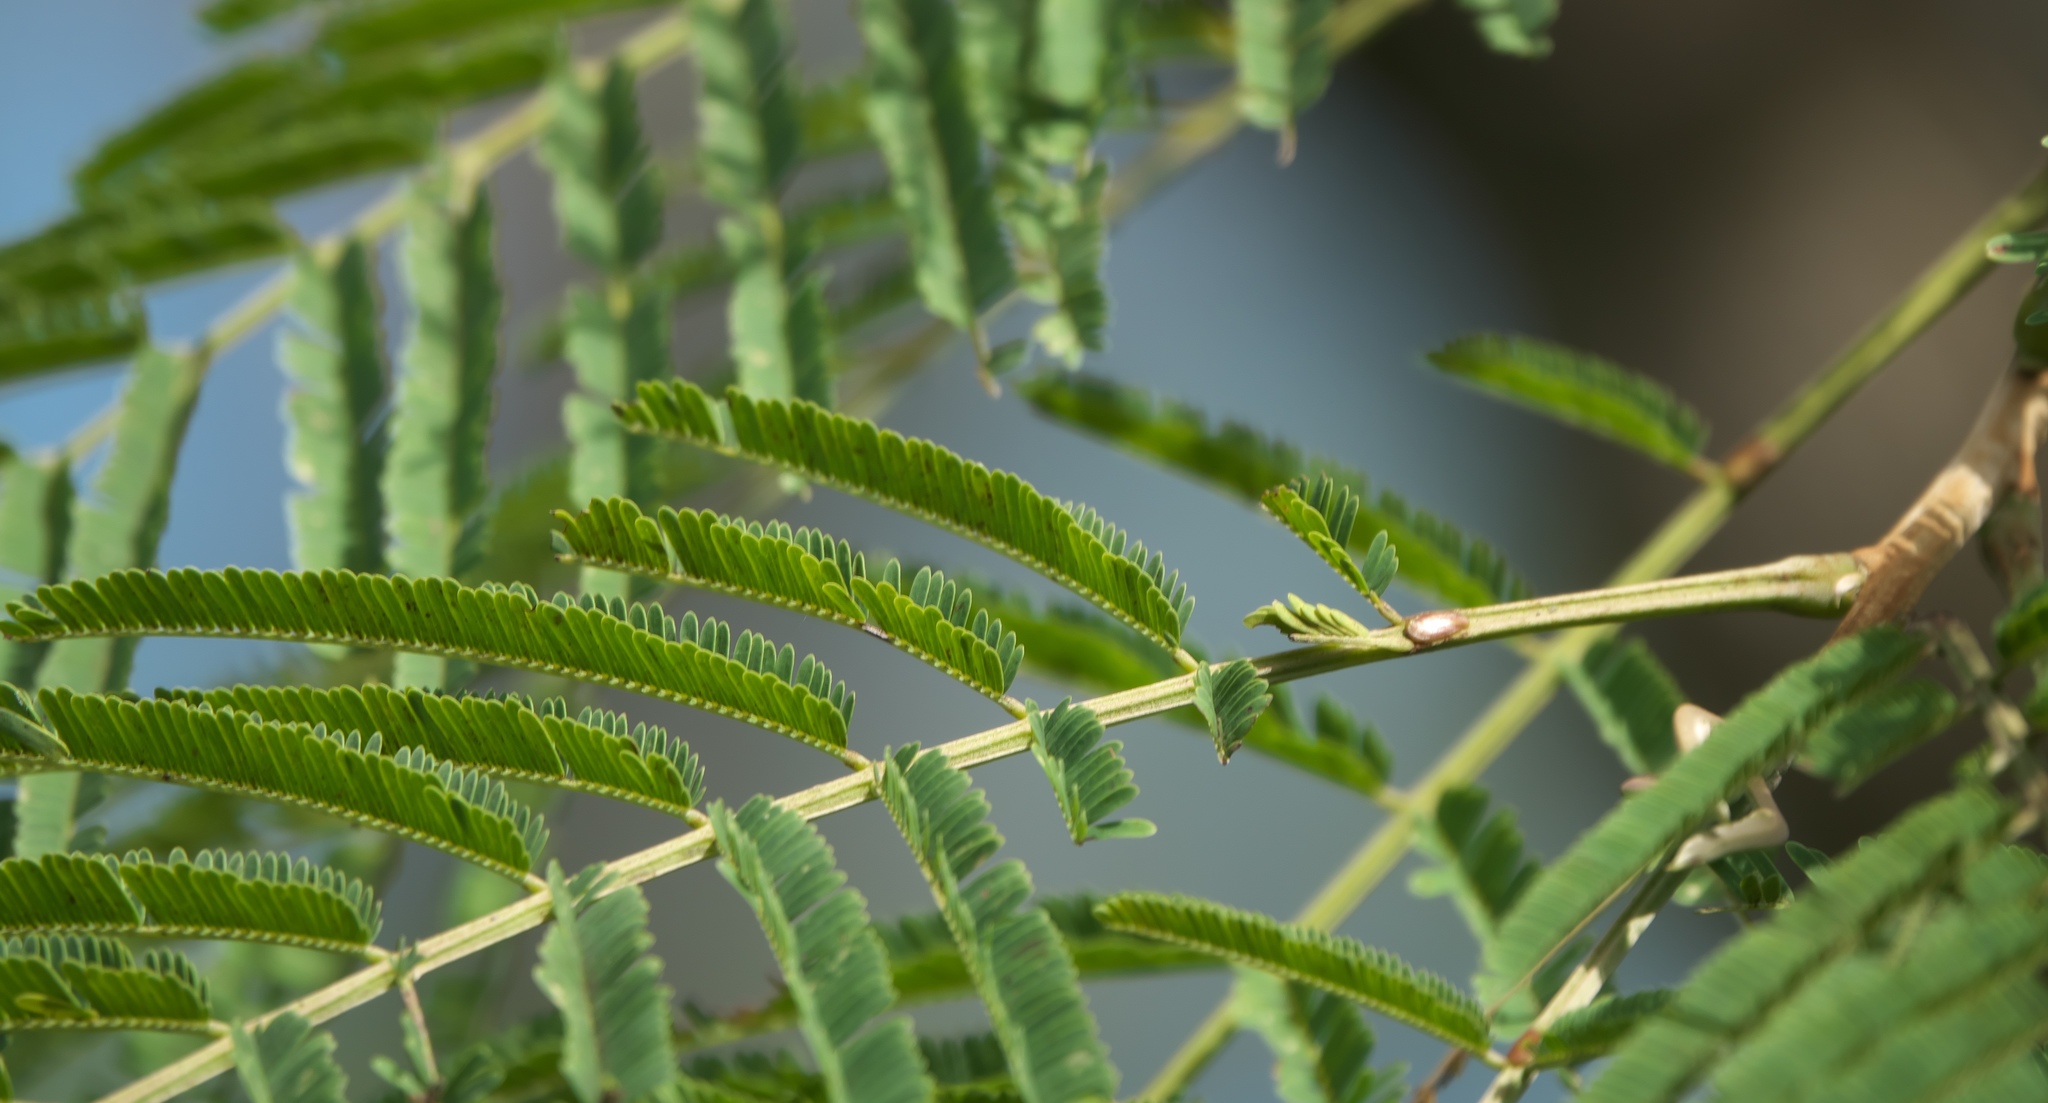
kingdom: Plantae
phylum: Tracheophyta
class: Magnoliopsida
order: Fabales
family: Fabaceae
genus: Leucaena
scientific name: Leucaena pulverulenta
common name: Great leadtree
